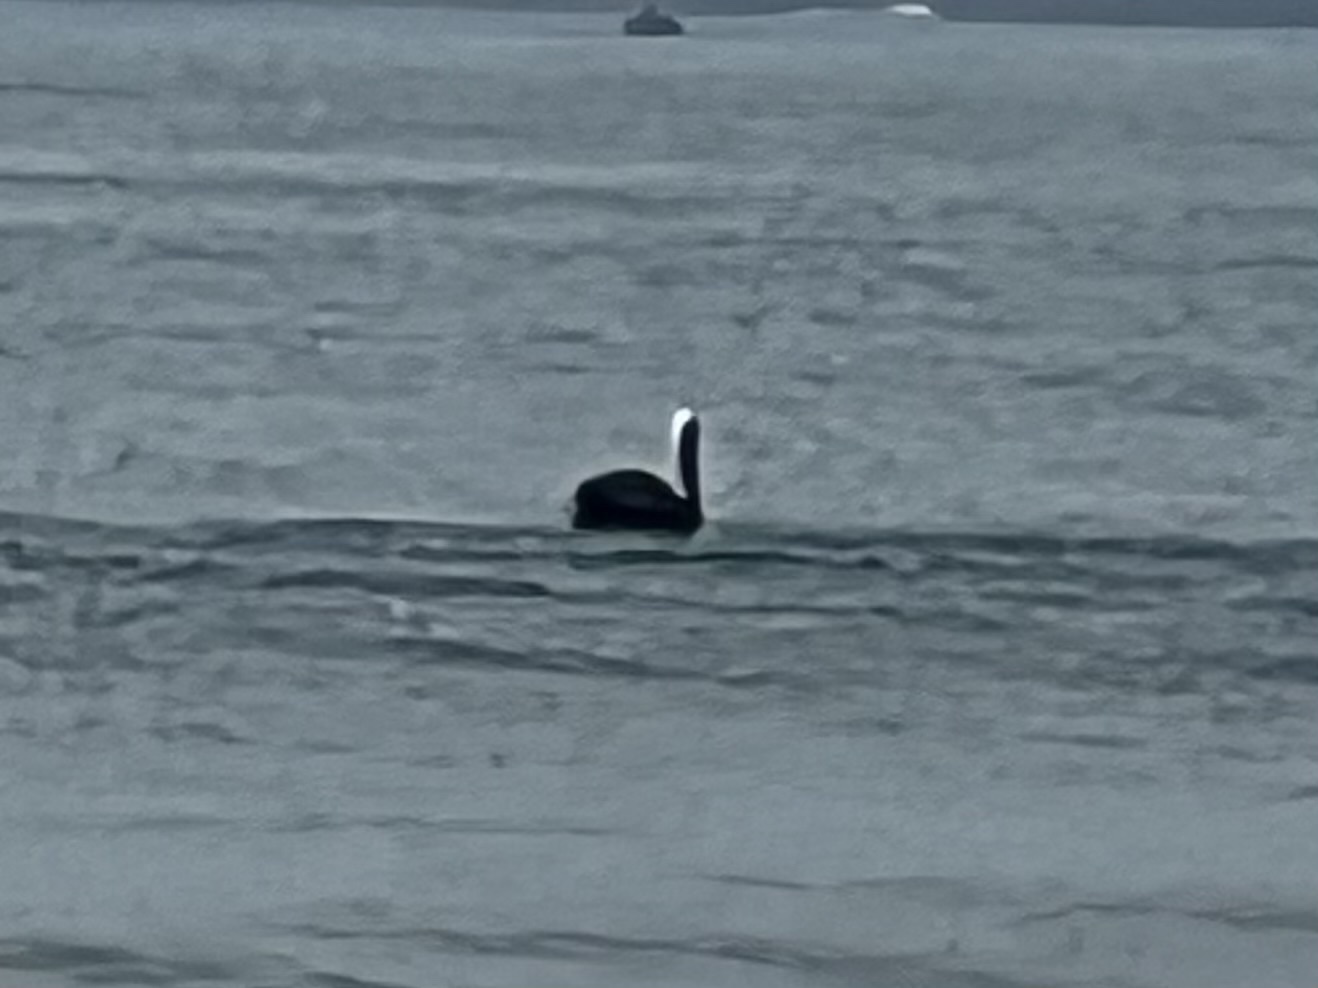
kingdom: Animalia
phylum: Chordata
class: Aves
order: Pelecaniformes
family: Pelecanidae
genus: Pelecanus
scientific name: Pelecanus occidentalis
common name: Brown pelican
